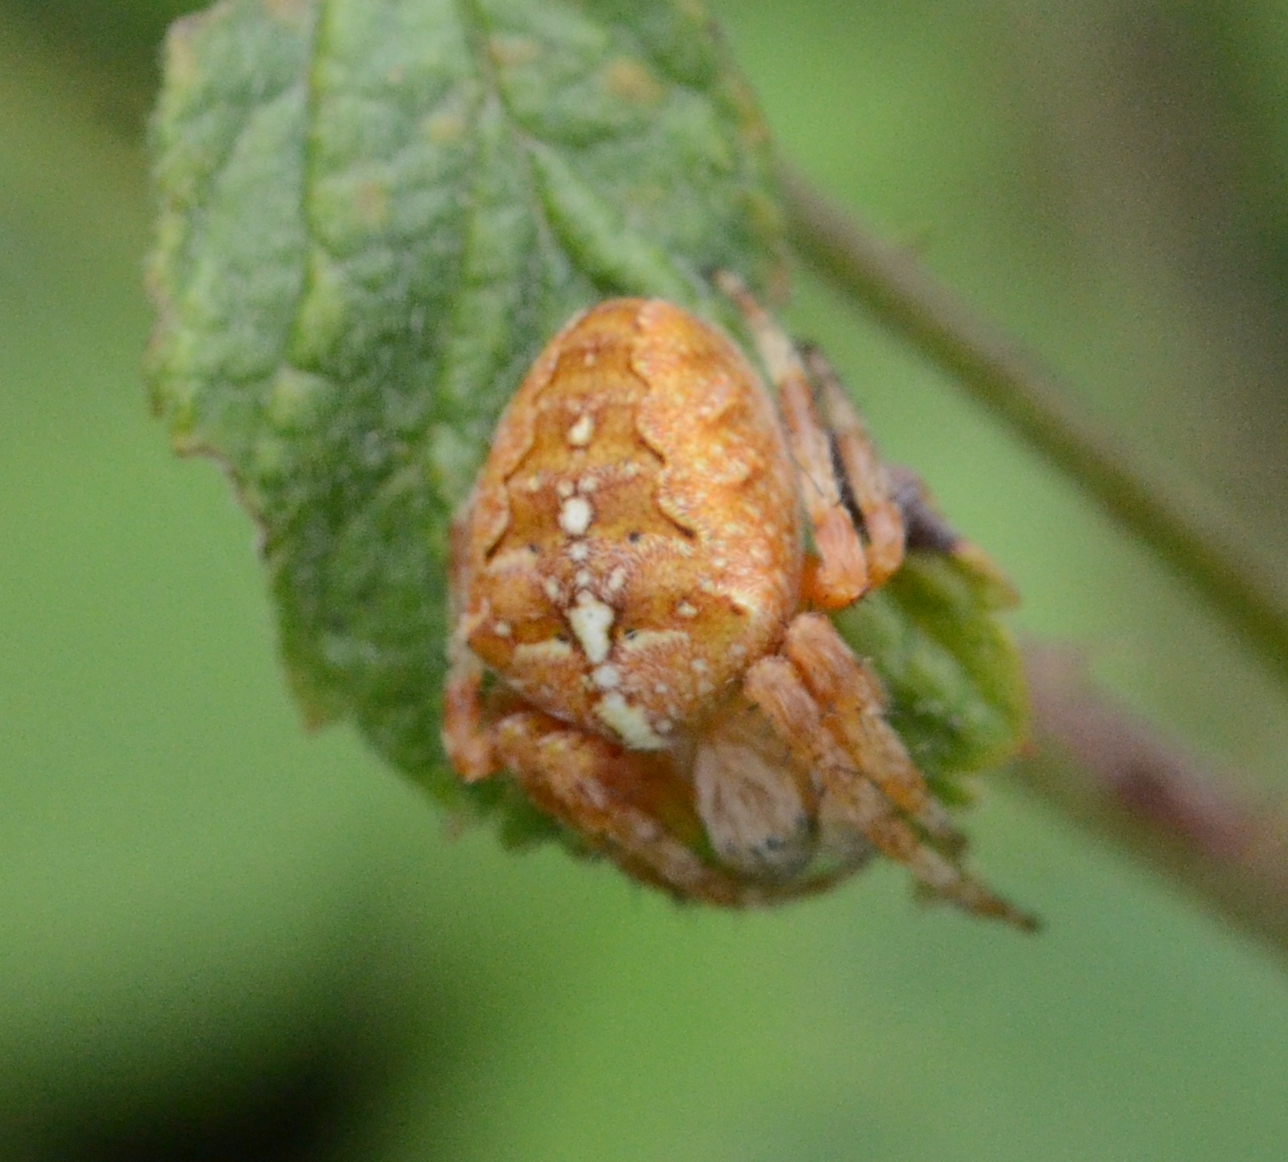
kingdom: Animalia
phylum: Arthropoda
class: Arachnida
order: Araneae
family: Araneidae
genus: Araneus
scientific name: Araneus diadematus
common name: Cross orbweaver
